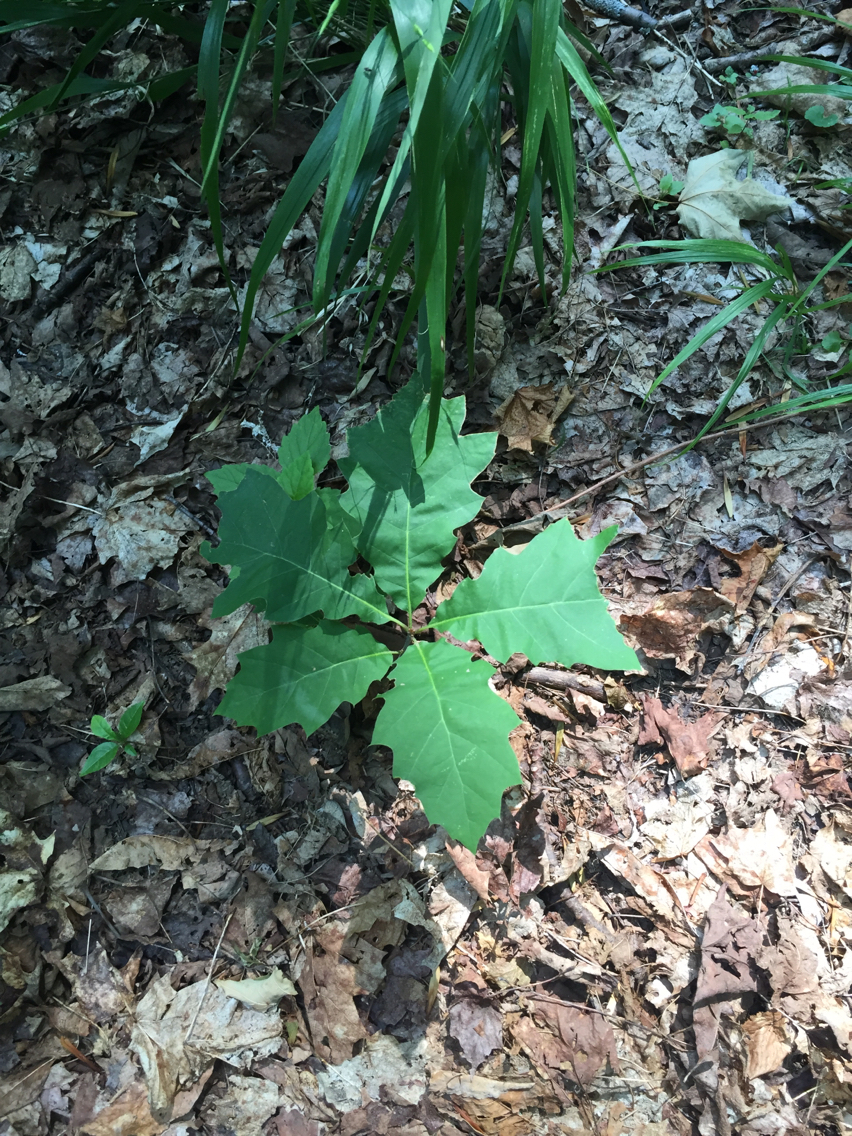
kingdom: Plantae
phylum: Tracheophyta
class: Magnoliopsida
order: Fagales
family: Fagaceae
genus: Quercus
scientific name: Quercus rubra
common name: Red oak
